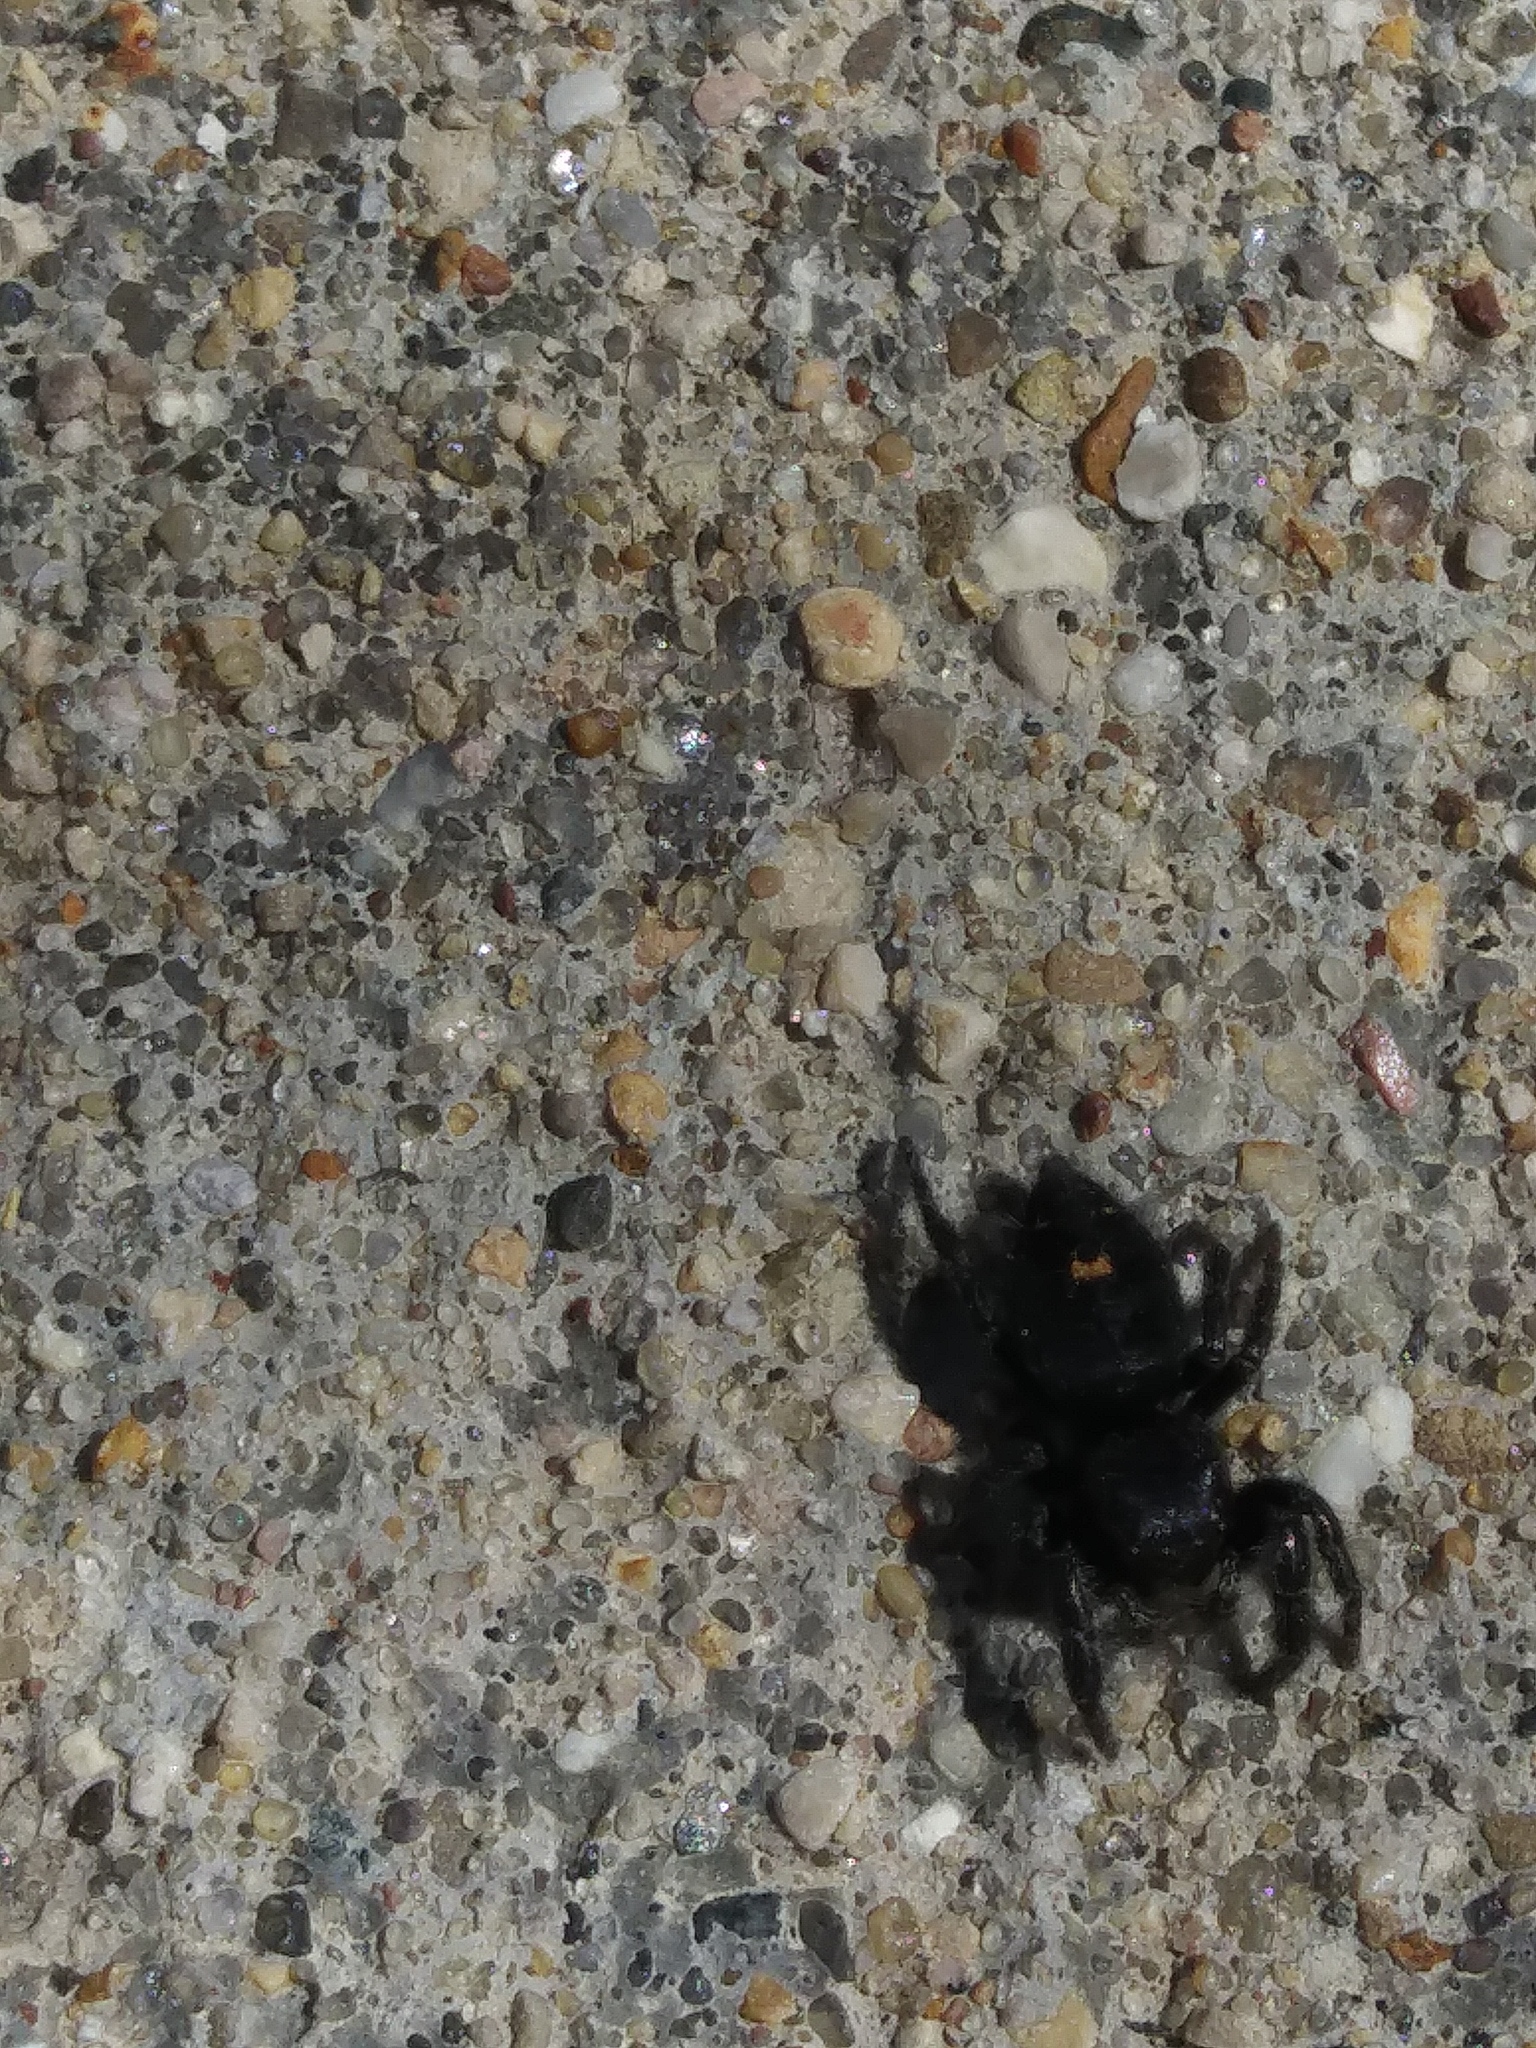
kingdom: Animalia
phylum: Arthropoda
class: Arachnida
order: Araneae
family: Salticidae
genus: Phidippus
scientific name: Phidippus audax
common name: Bold jumper
